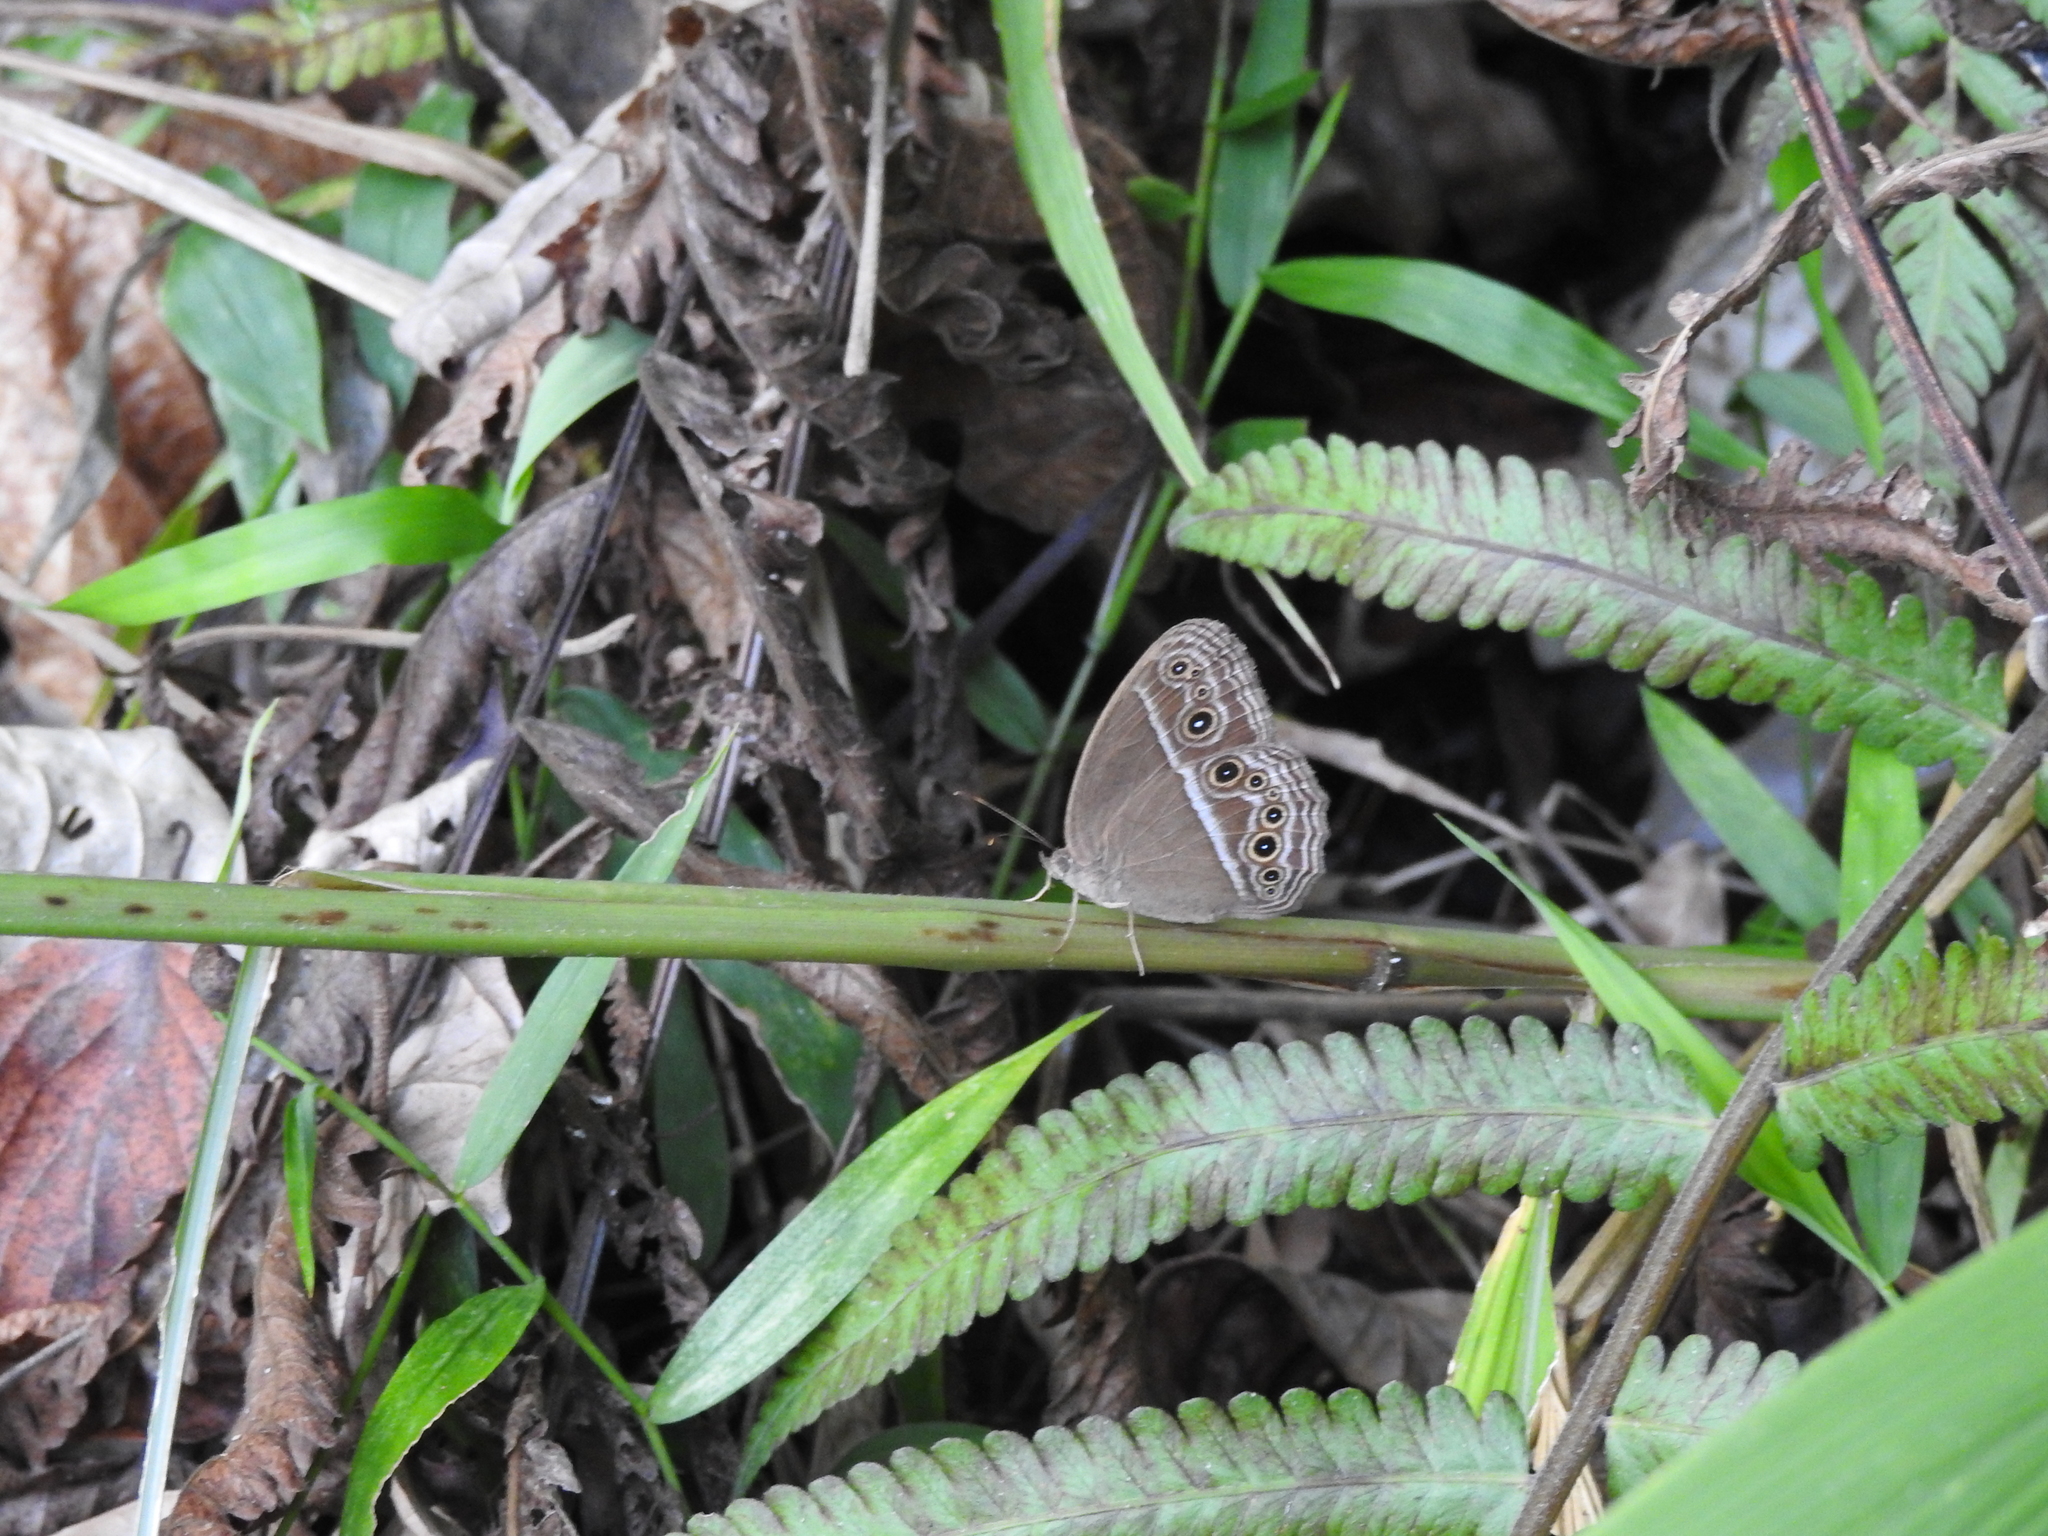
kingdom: Animalia
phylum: Arthropoda
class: Insecta
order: Lepidoptera
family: Nymphalidae
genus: Mycalesis
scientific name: Mycalesis perseus
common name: Dingy bushbrown
